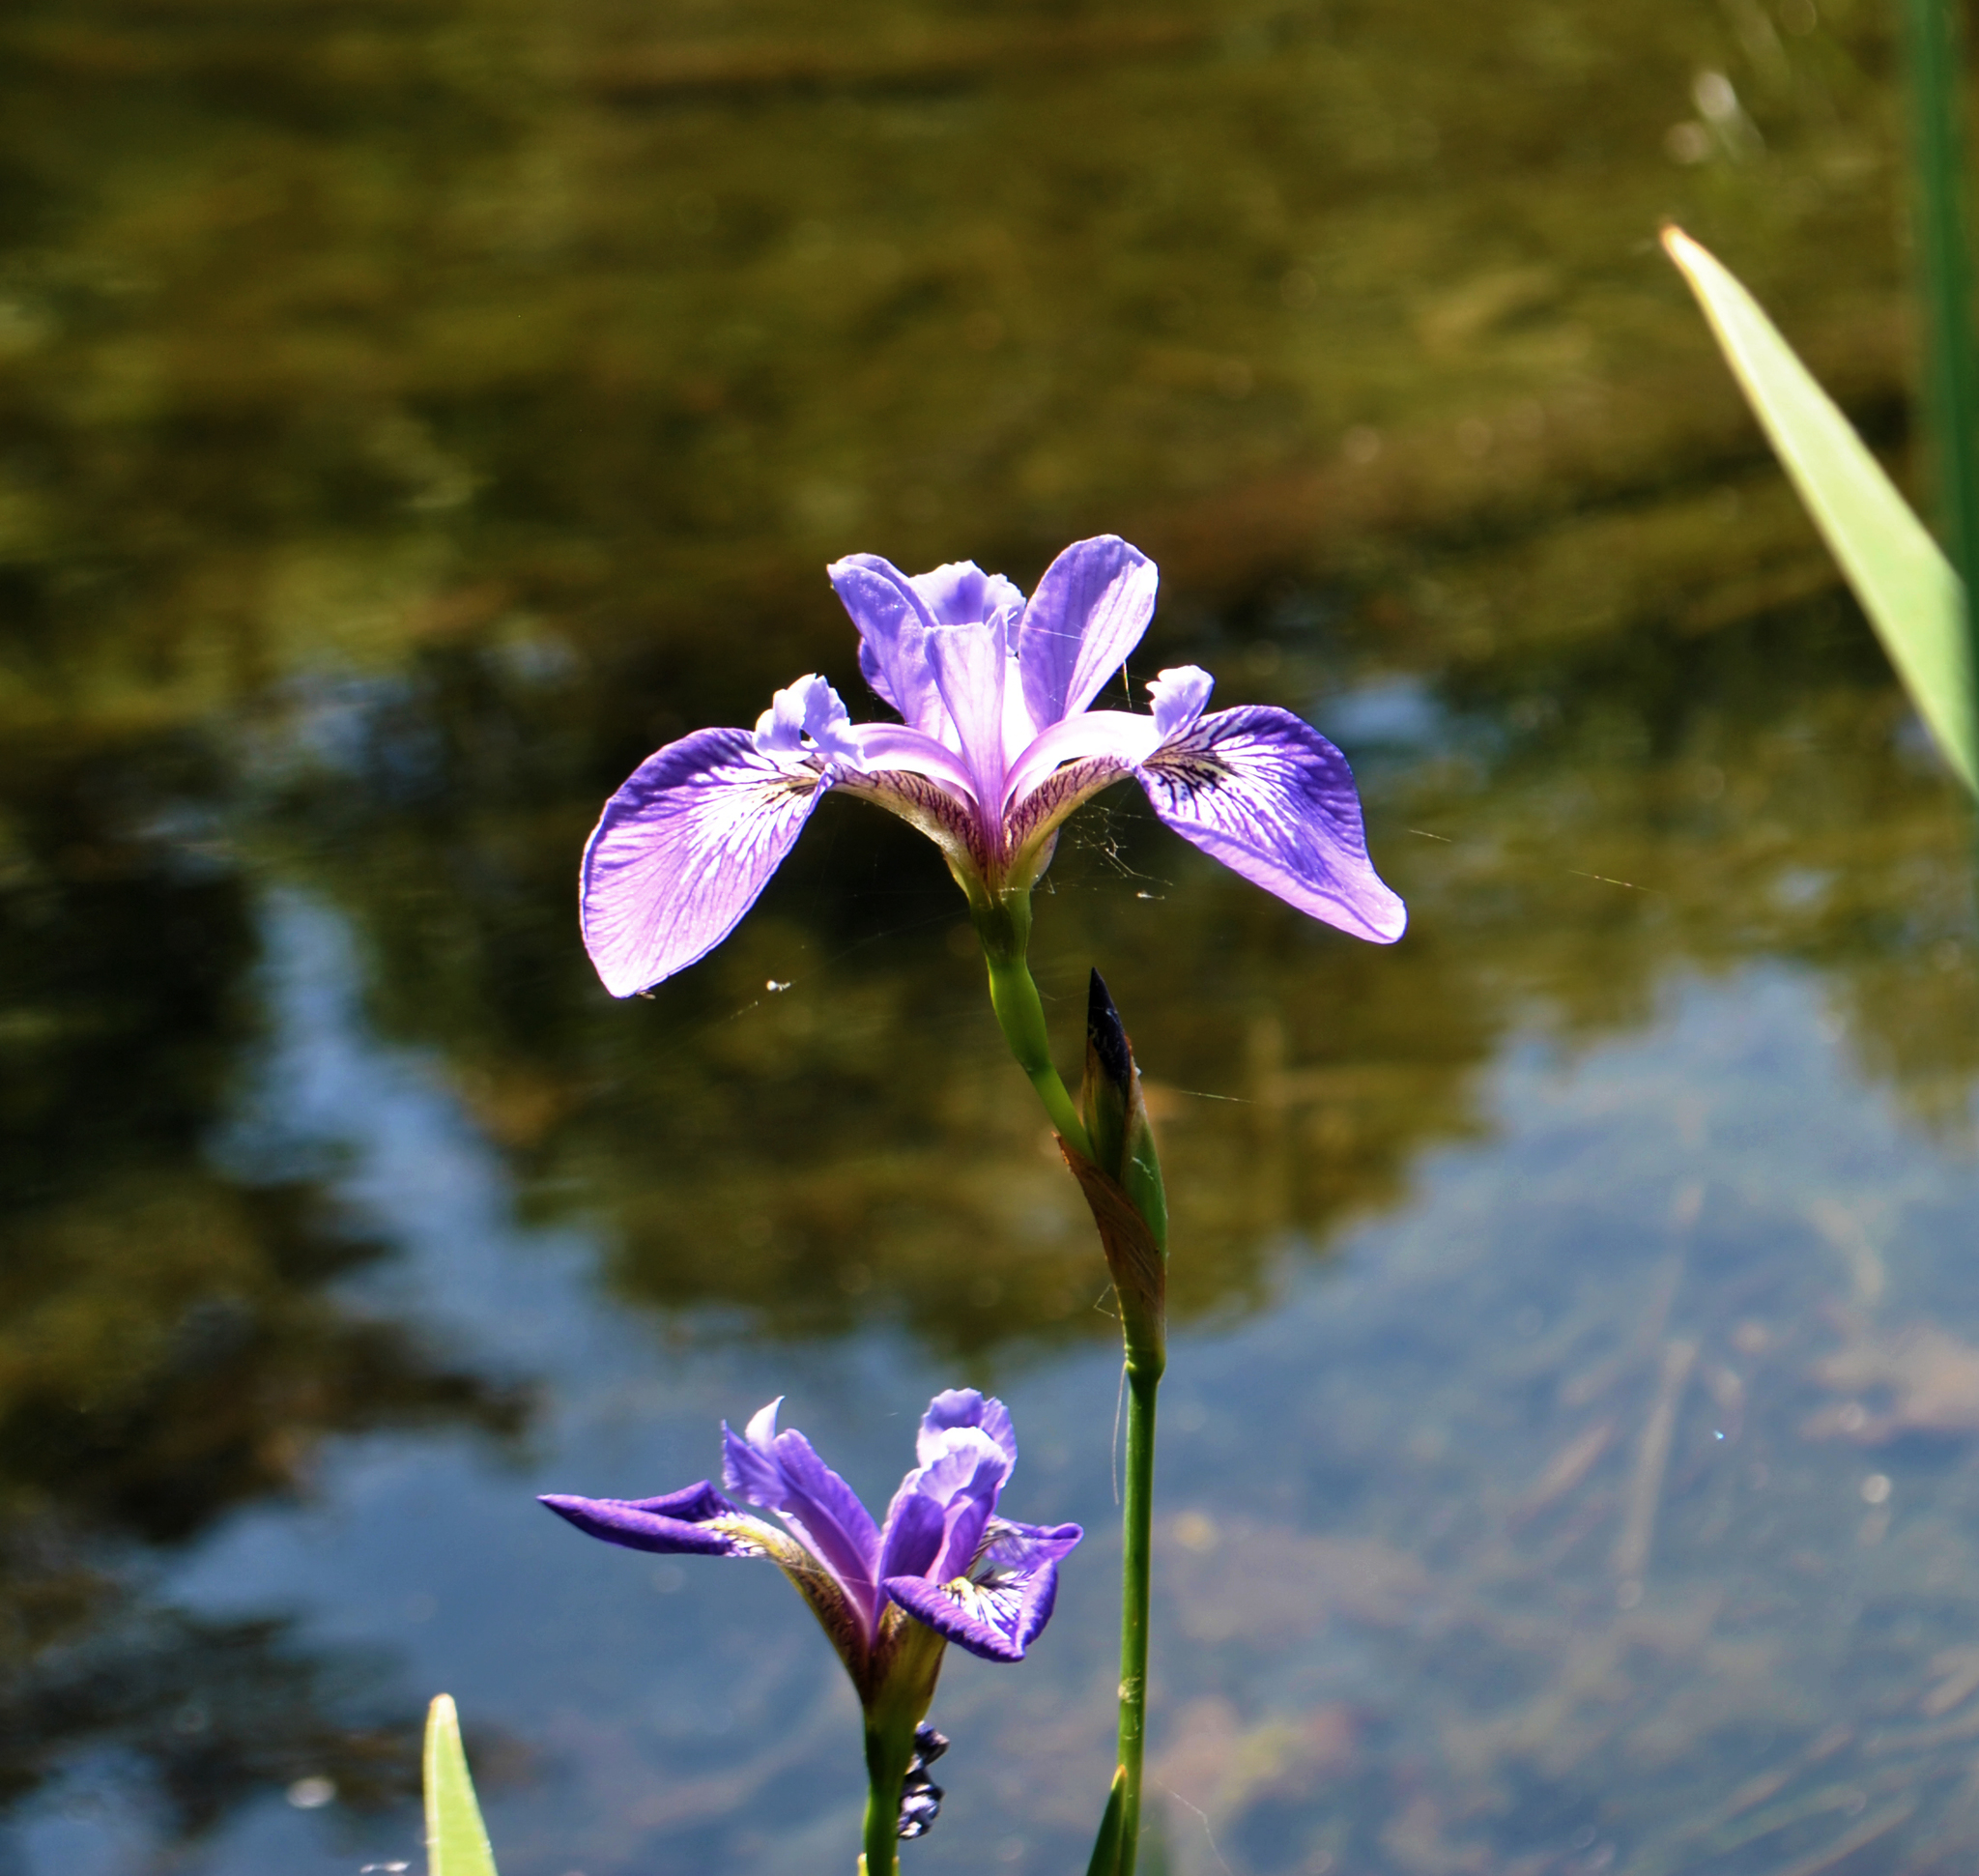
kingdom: Plantae
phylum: Tracheophyta
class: Liliopsida
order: Asparagales
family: Iridaceae
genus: Iris
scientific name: Iris versicolor
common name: Purple iris
